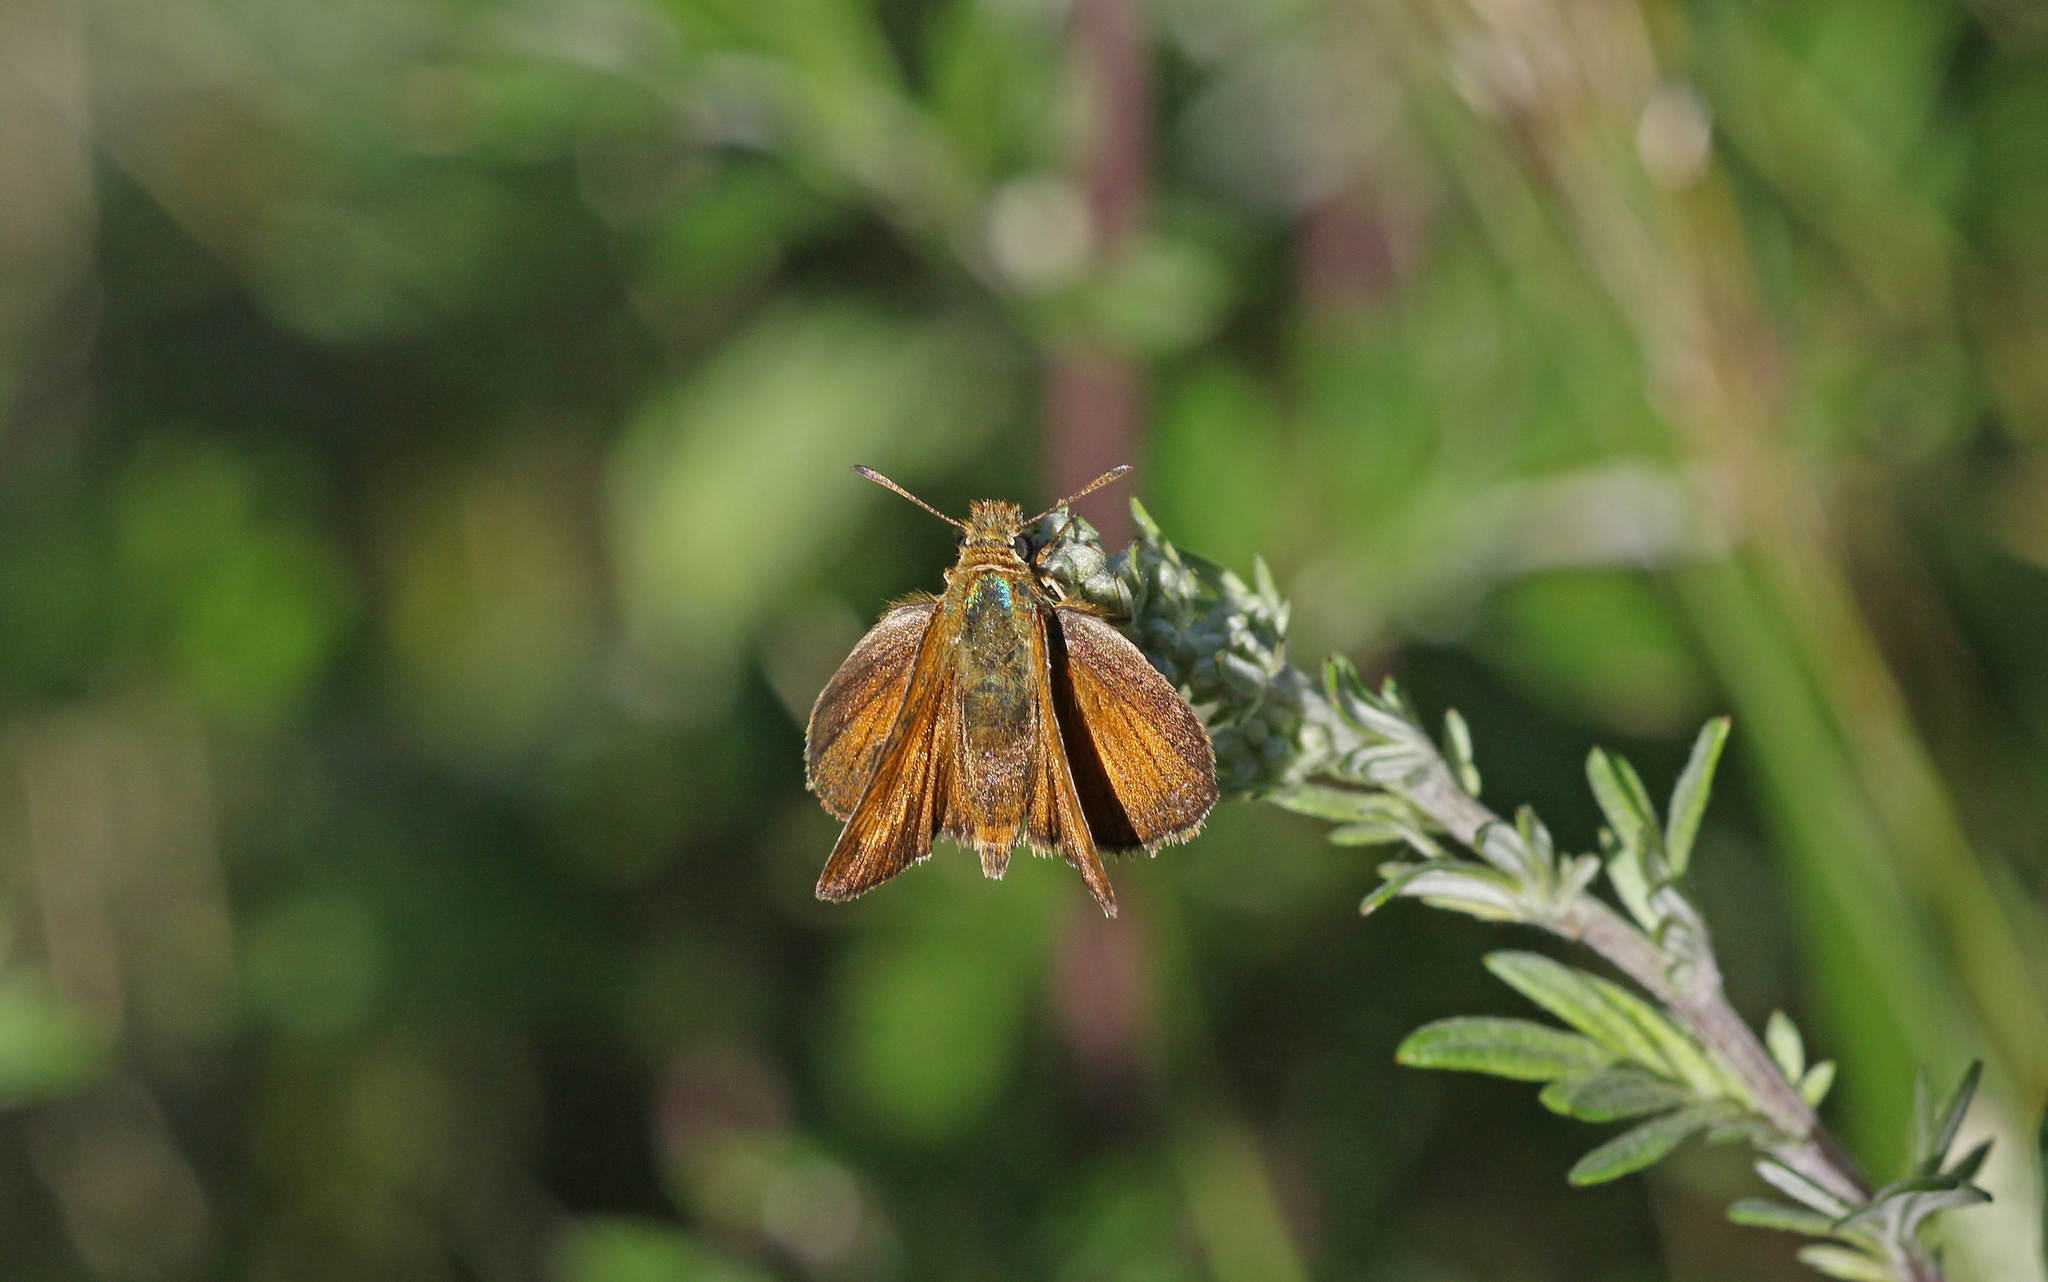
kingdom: Animalia
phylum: Arthropoda
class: Insecta
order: Lepidoptera
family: Hesperiidae
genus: Thymelicus
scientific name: Thymelicus acteon
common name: Lulworth skipper
